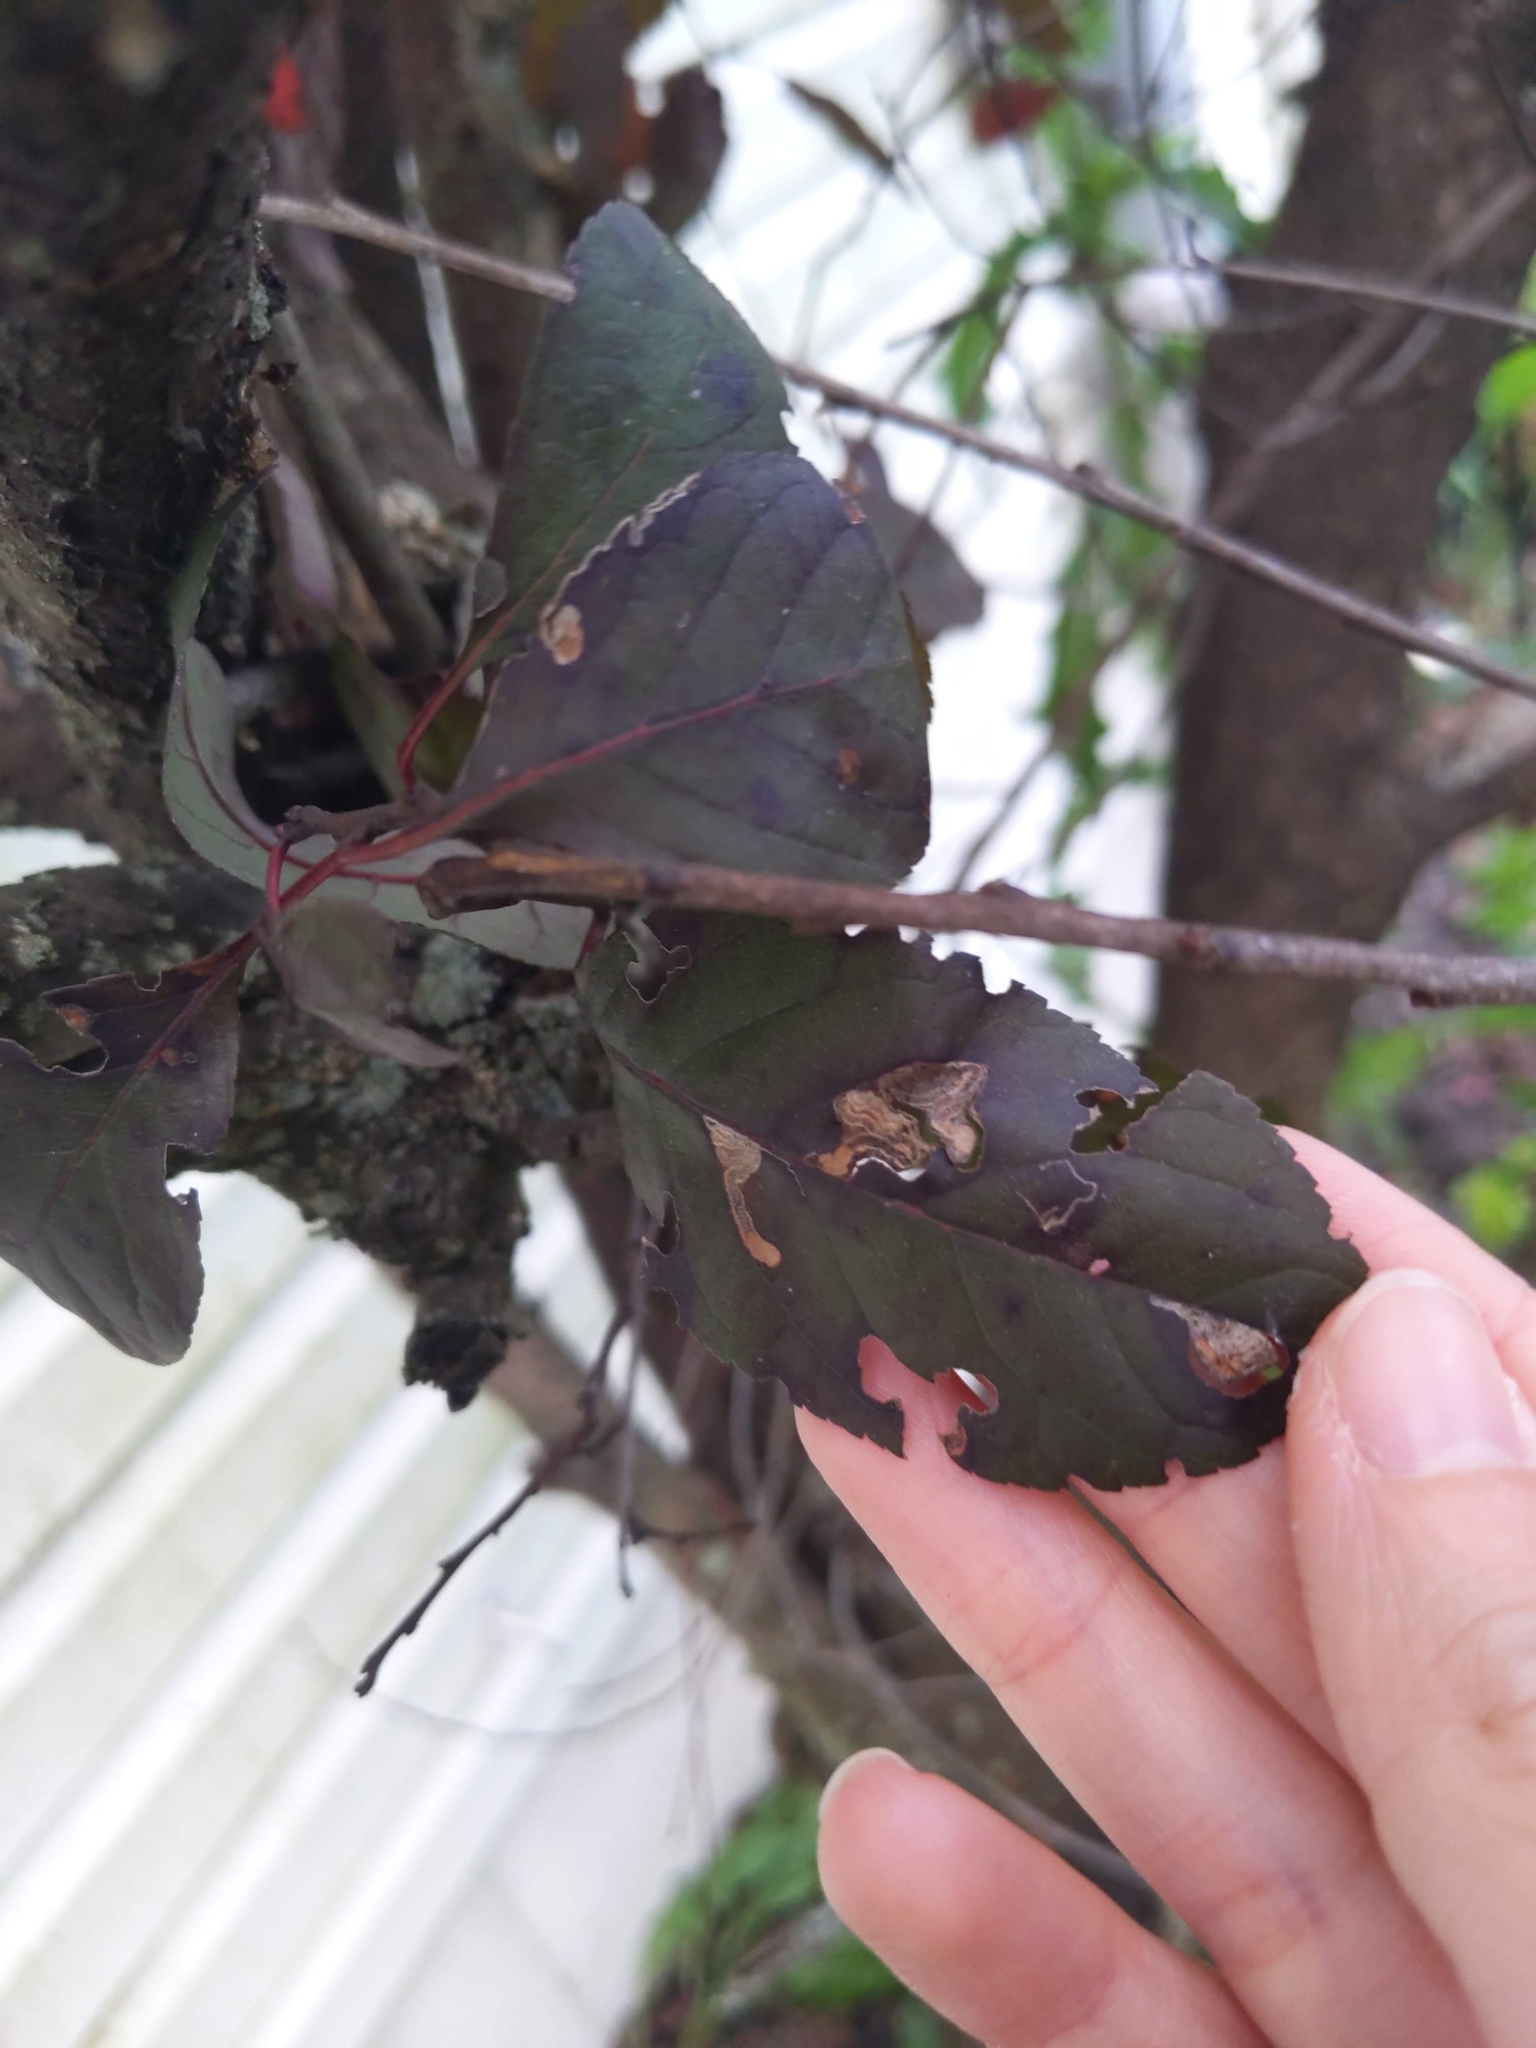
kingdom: Animalia
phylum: Arthropoda
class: Insecta
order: Lepidoptera
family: Nepticulidae
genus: Stigmella
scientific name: Stigmella prunifoliella
